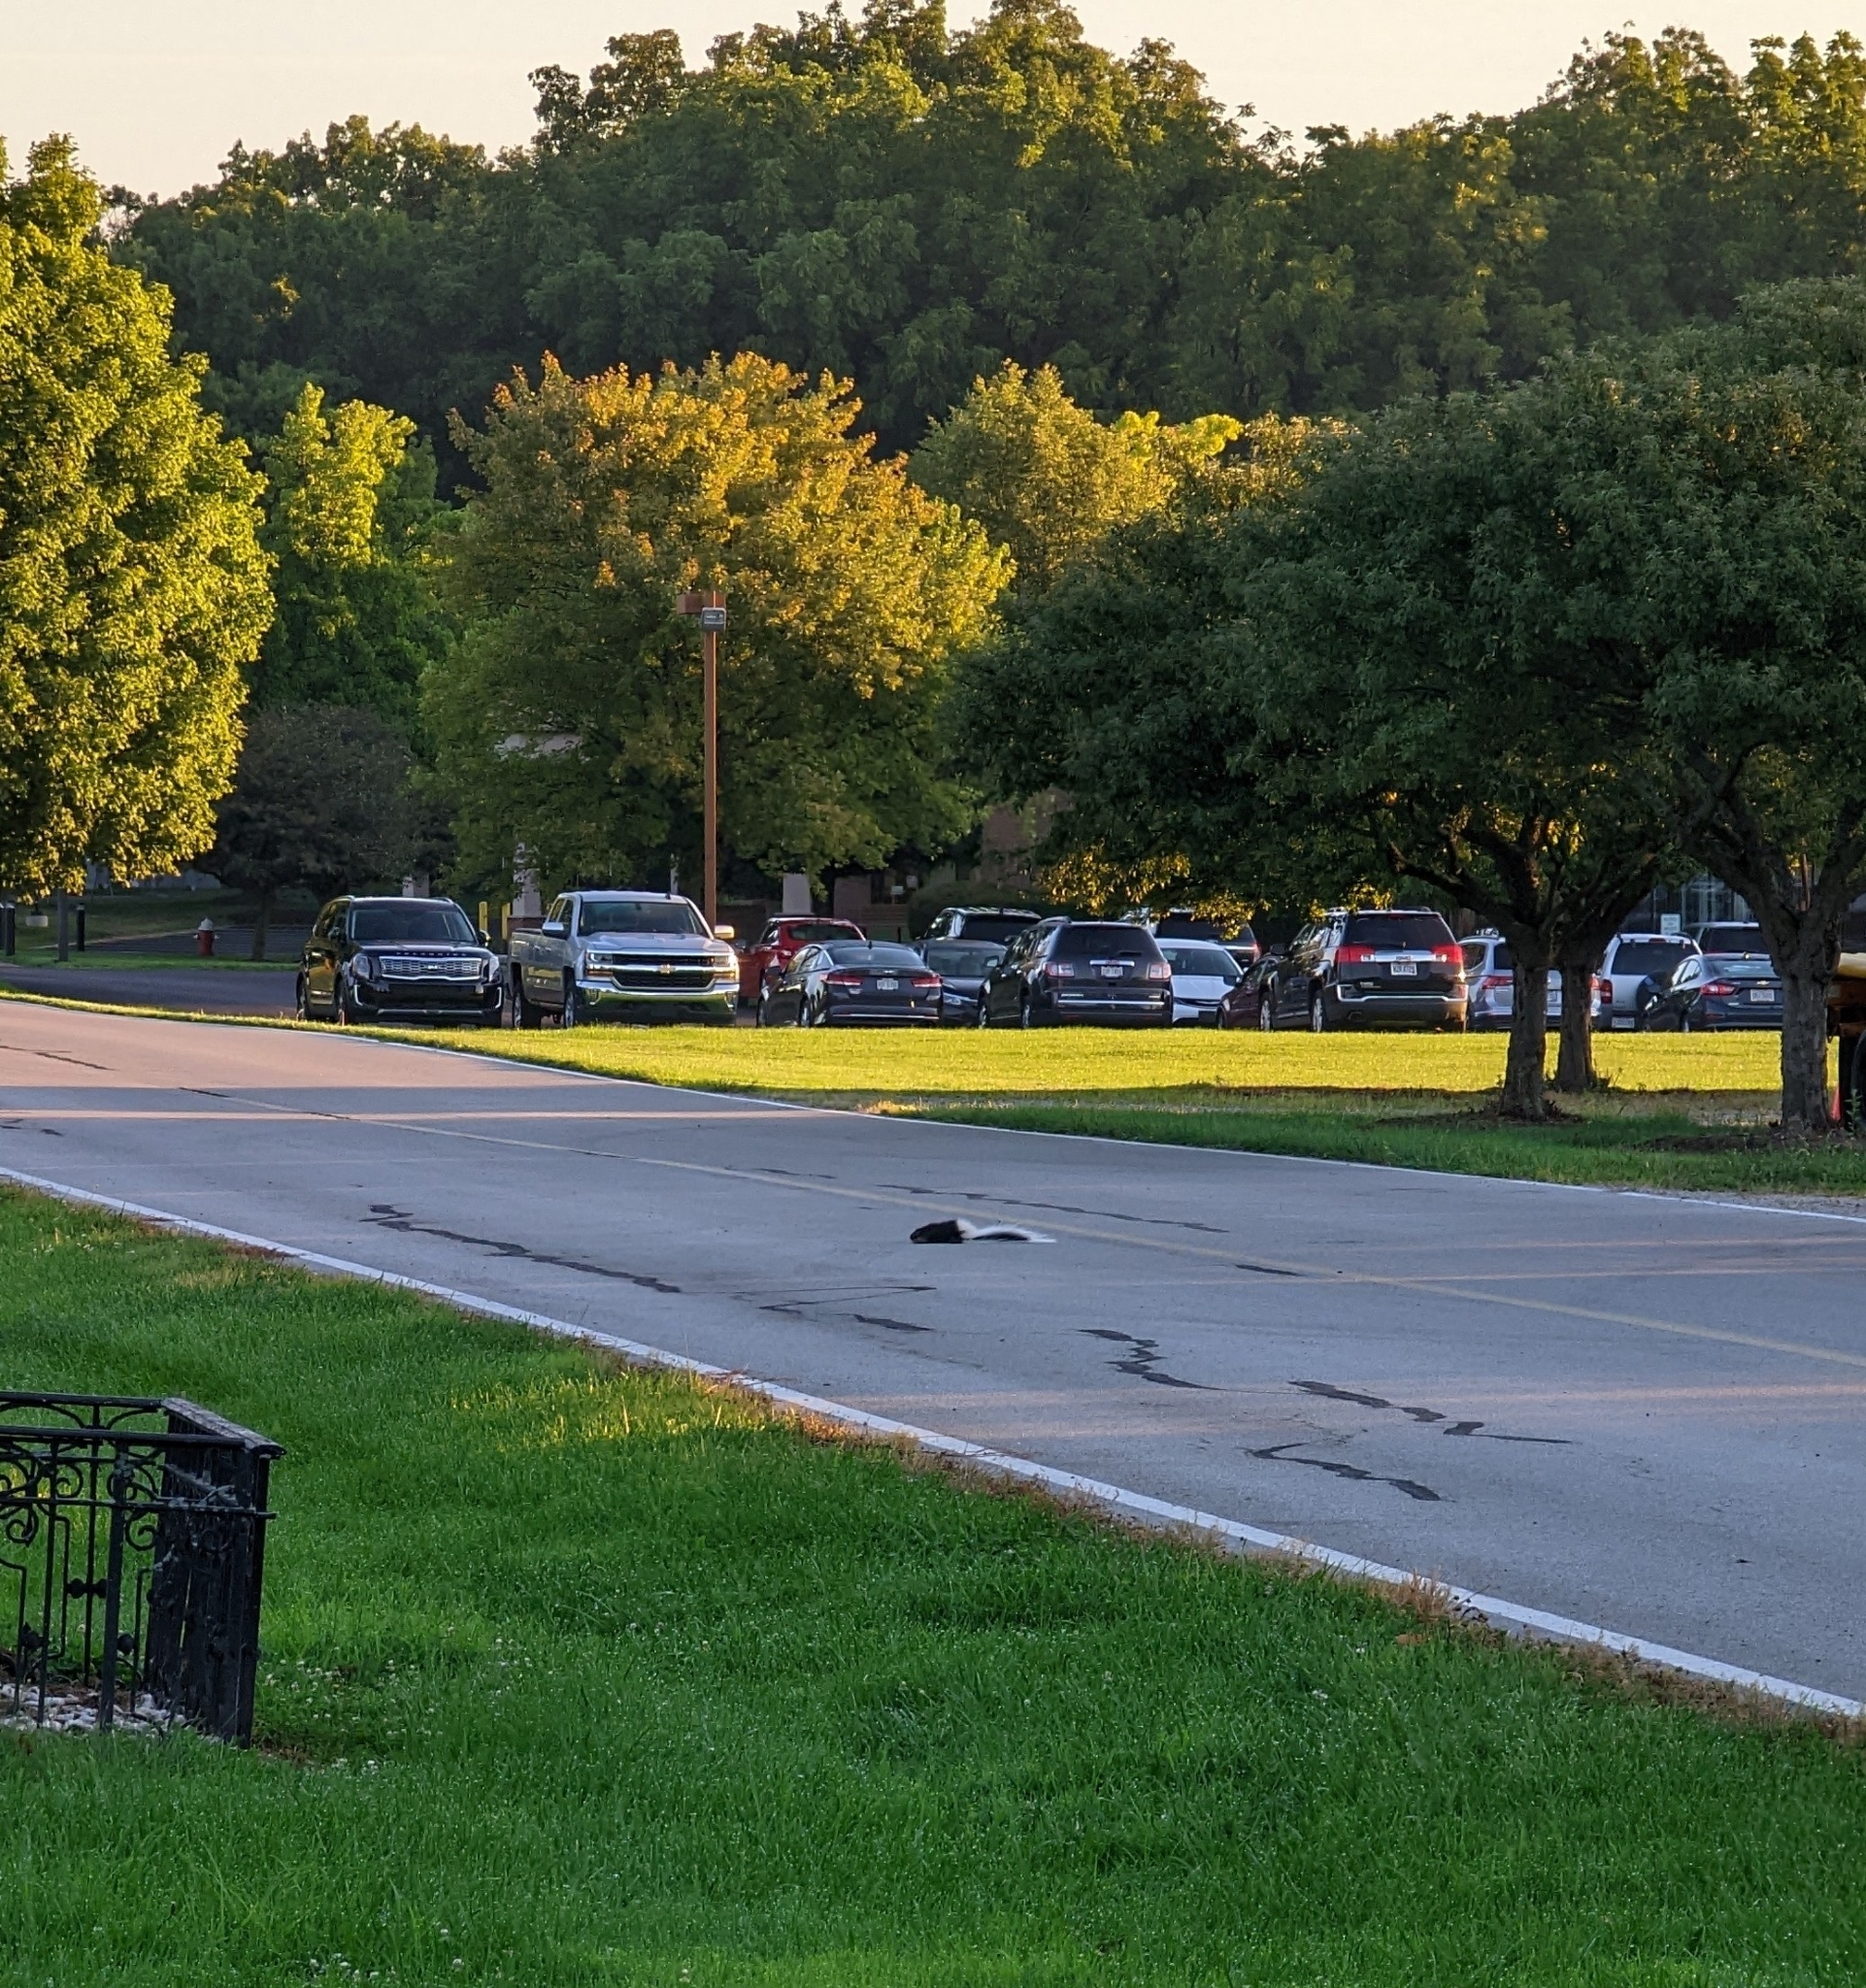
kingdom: Animalia
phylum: Chordata
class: Mammalia
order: Carnivora
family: Mephitidae
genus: Mephitis
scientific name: Mephitis mephitis
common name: Striped skunk
